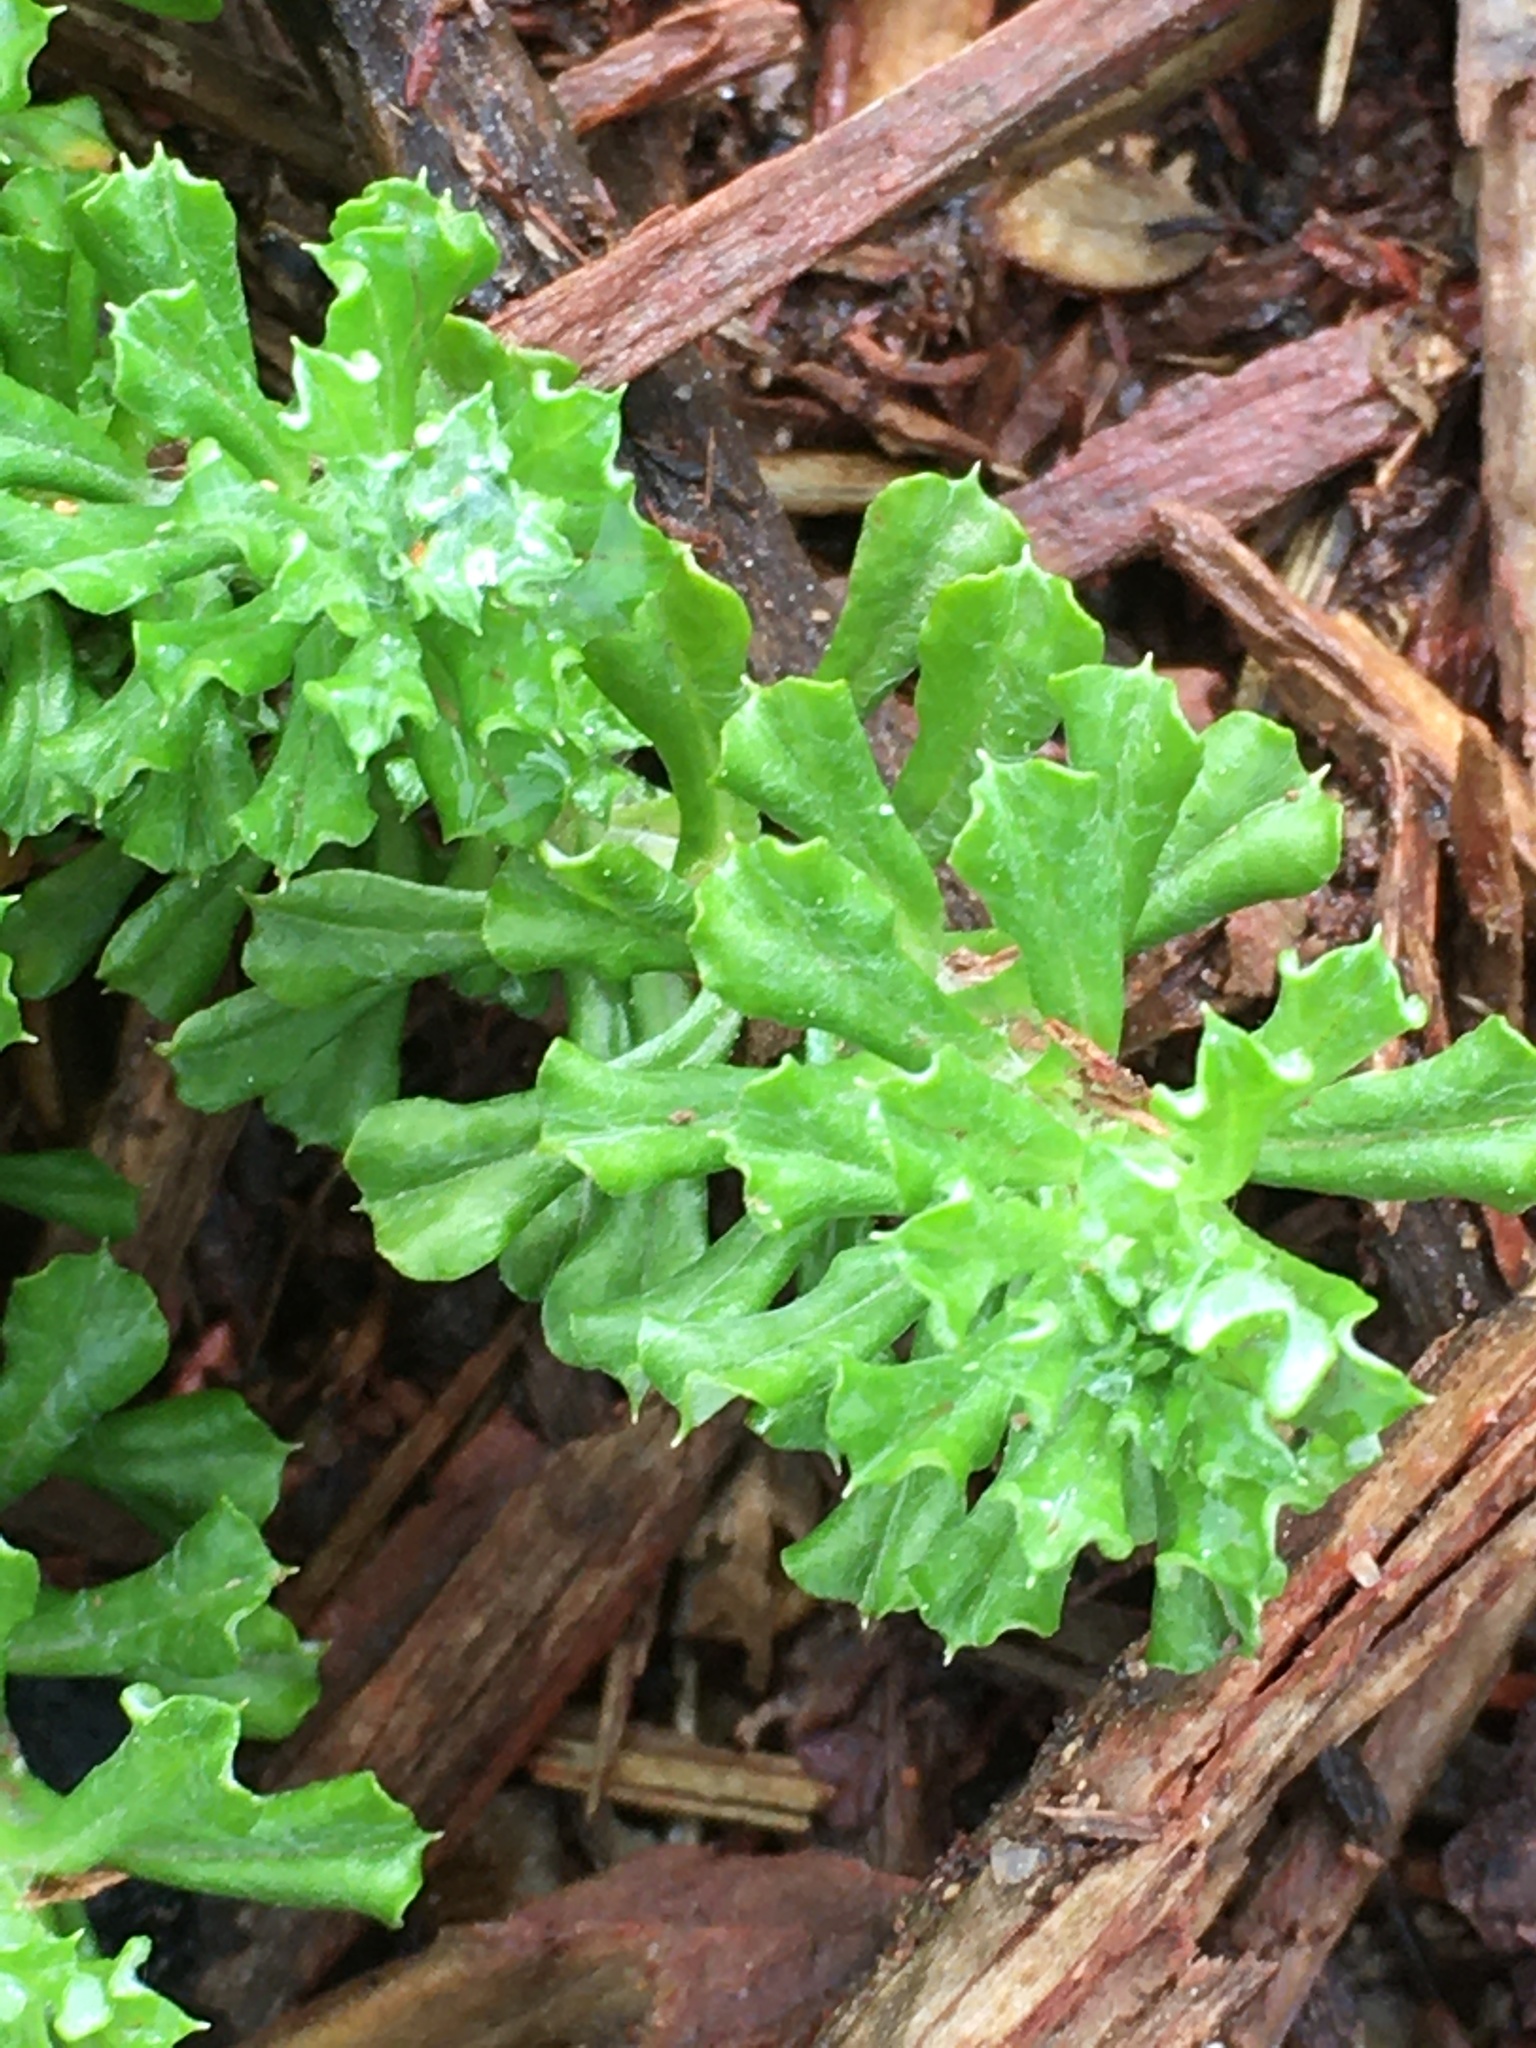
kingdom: Plantae
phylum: Tracheophyta
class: Magnoliopsida
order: Asterales
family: Asteraceae
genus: Facelis
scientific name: Facelis retusa
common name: Annual trampweed
